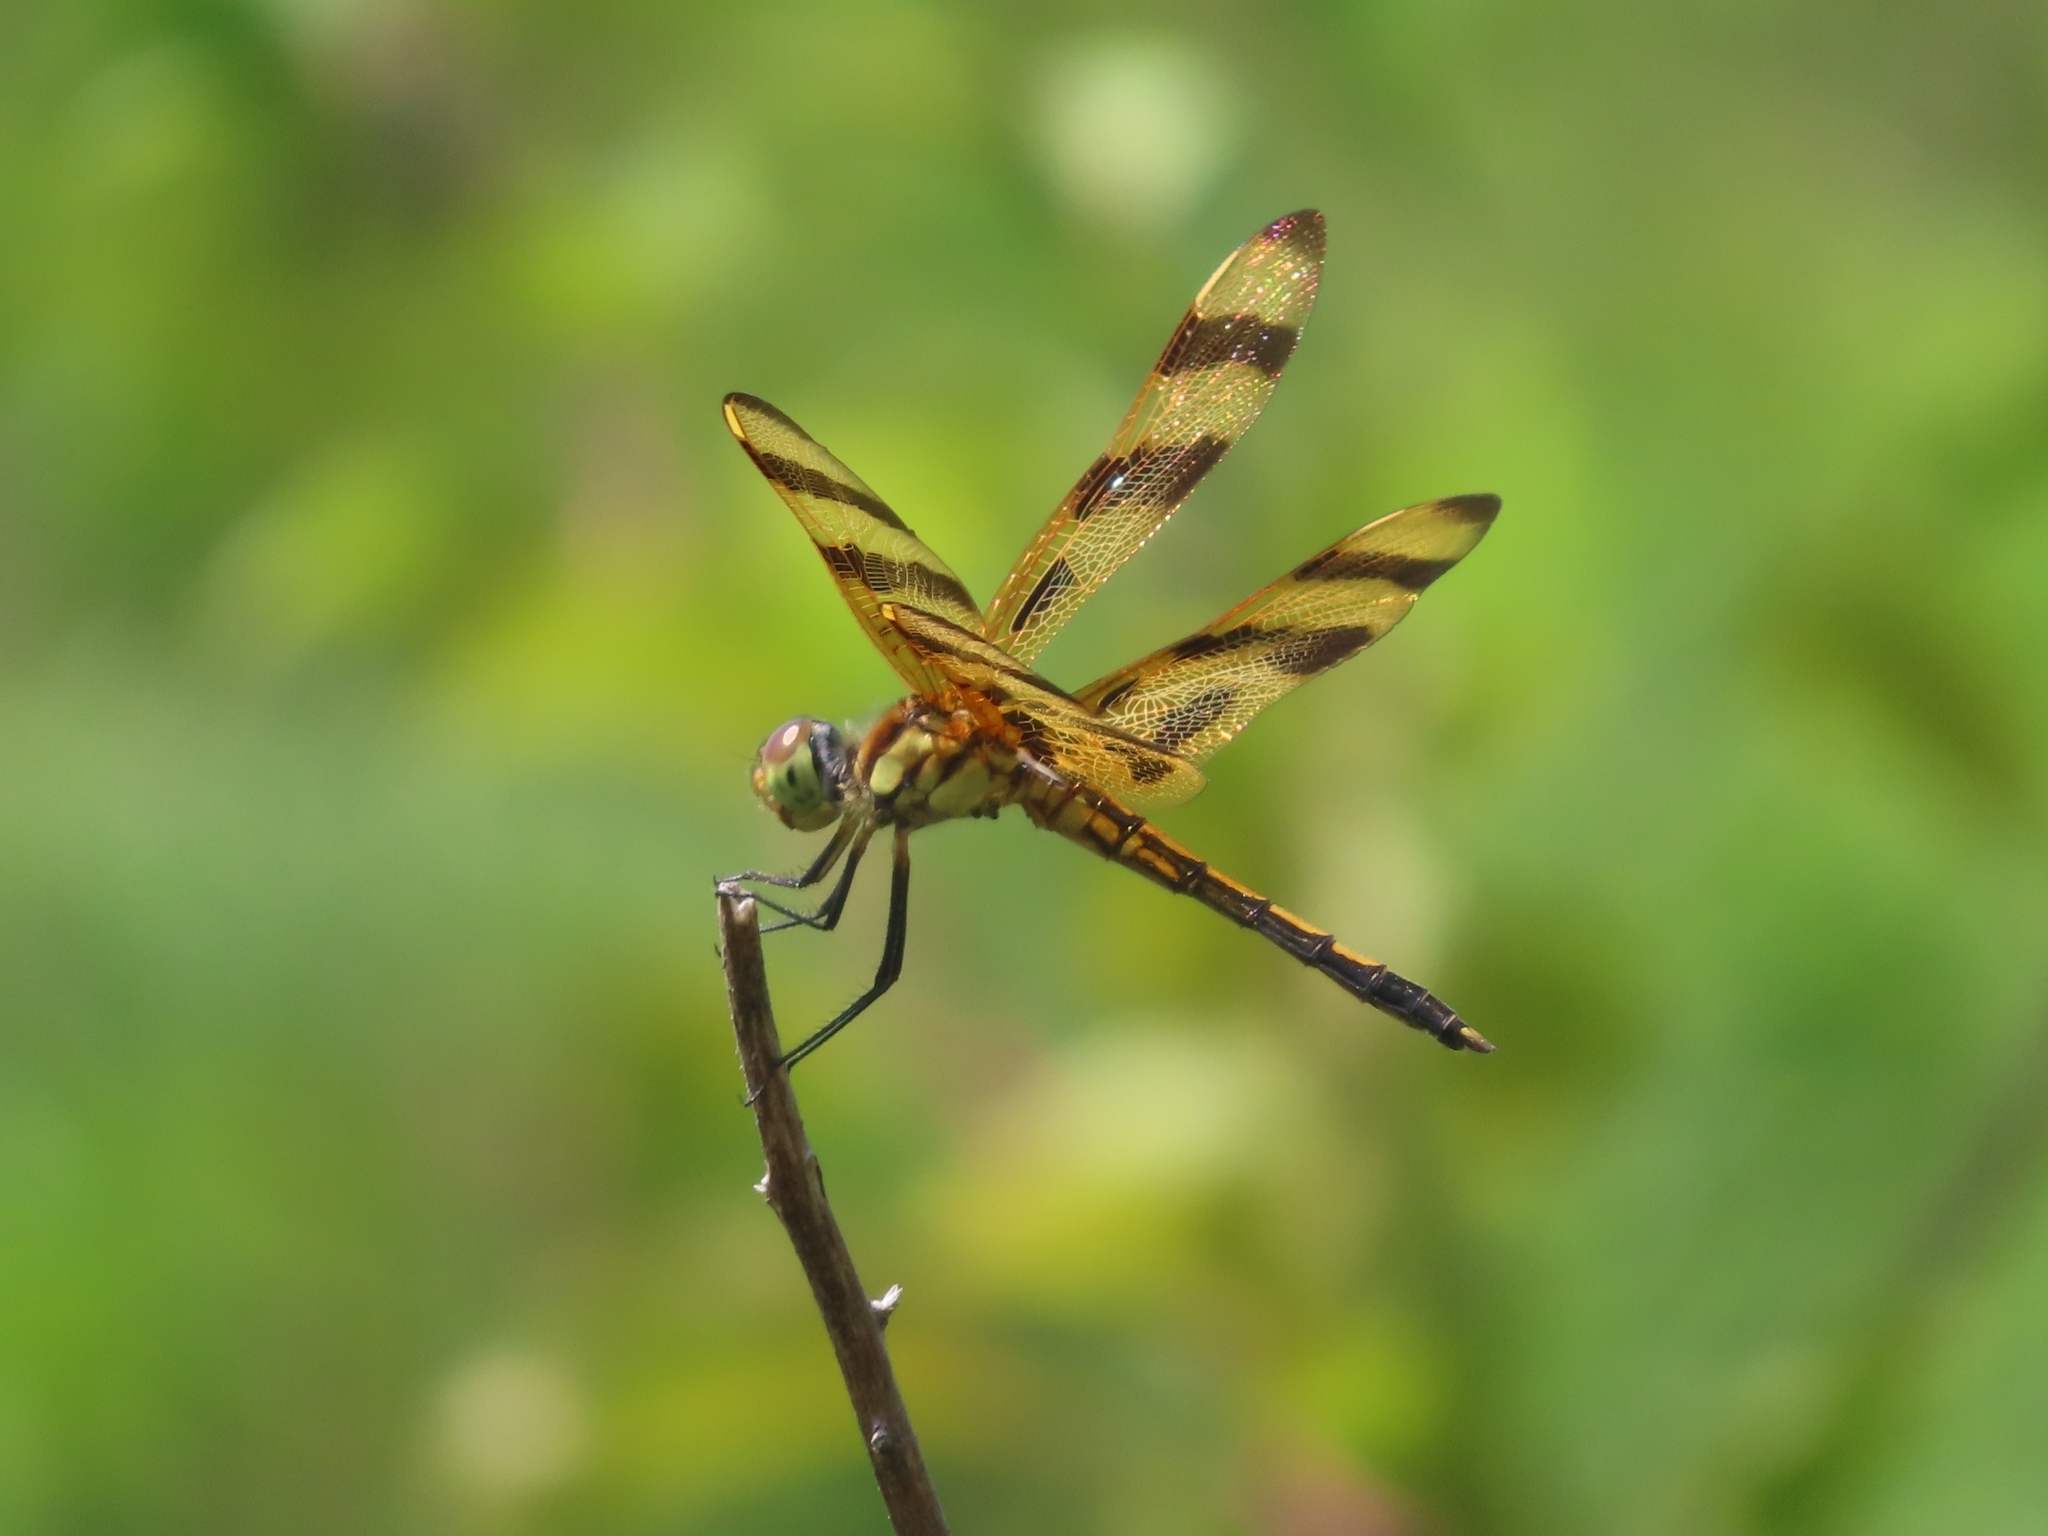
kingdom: Animalia
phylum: Arthropoda
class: Insecta
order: Odonata
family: Libellulidae
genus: Celithemis
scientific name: Celithemis eponina
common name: Halloween pennant
